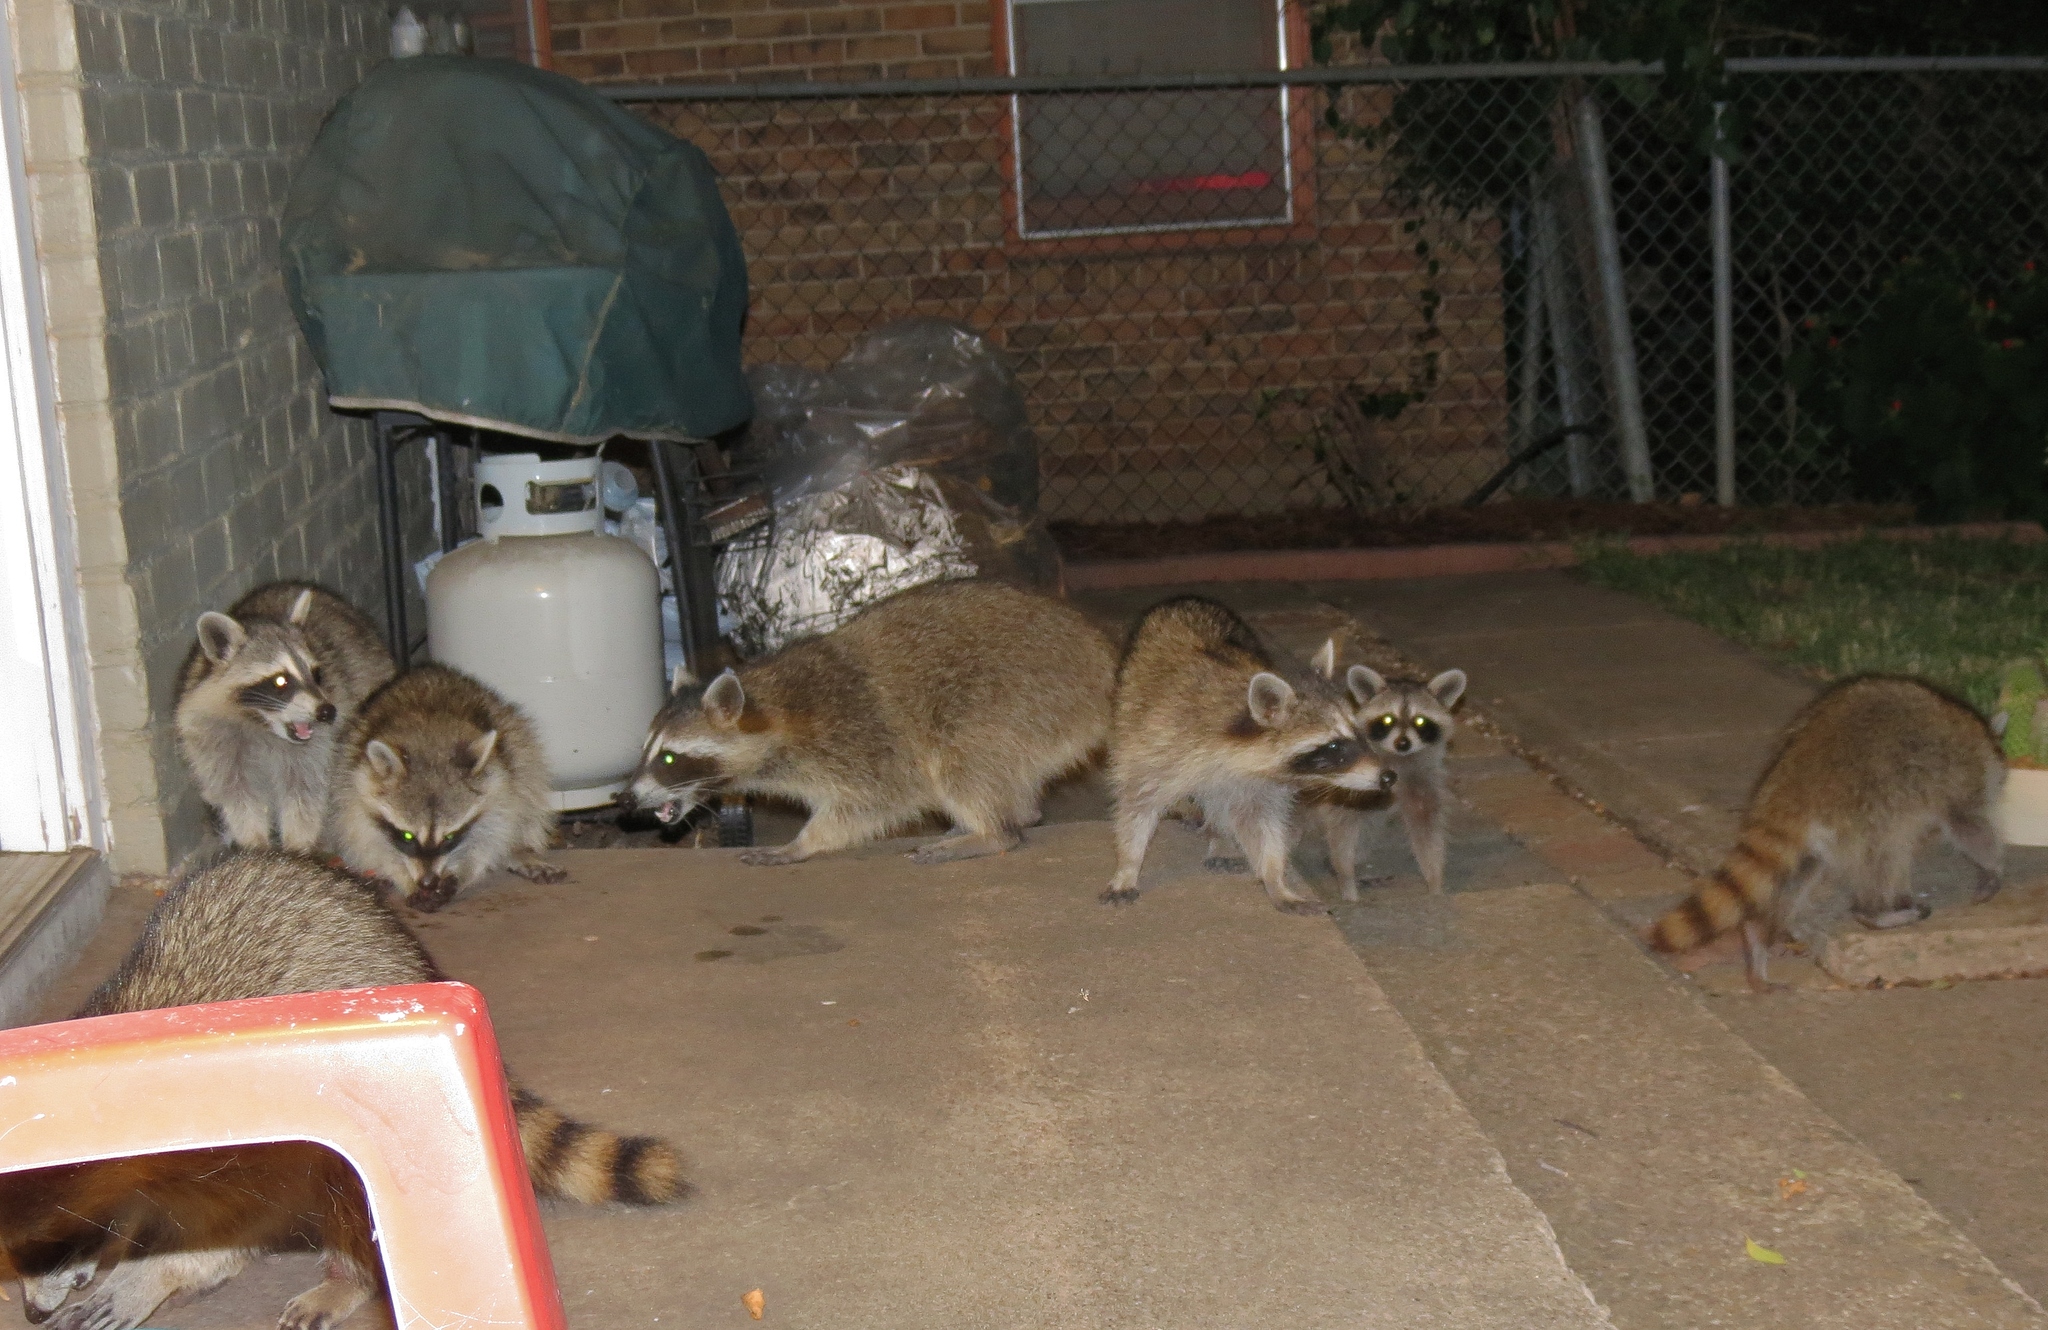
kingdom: Animalia
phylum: Chordata
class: Mammalia
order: Carnivora
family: Procyonidae
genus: Procyon
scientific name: Procyon lotor
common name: Raccoon
